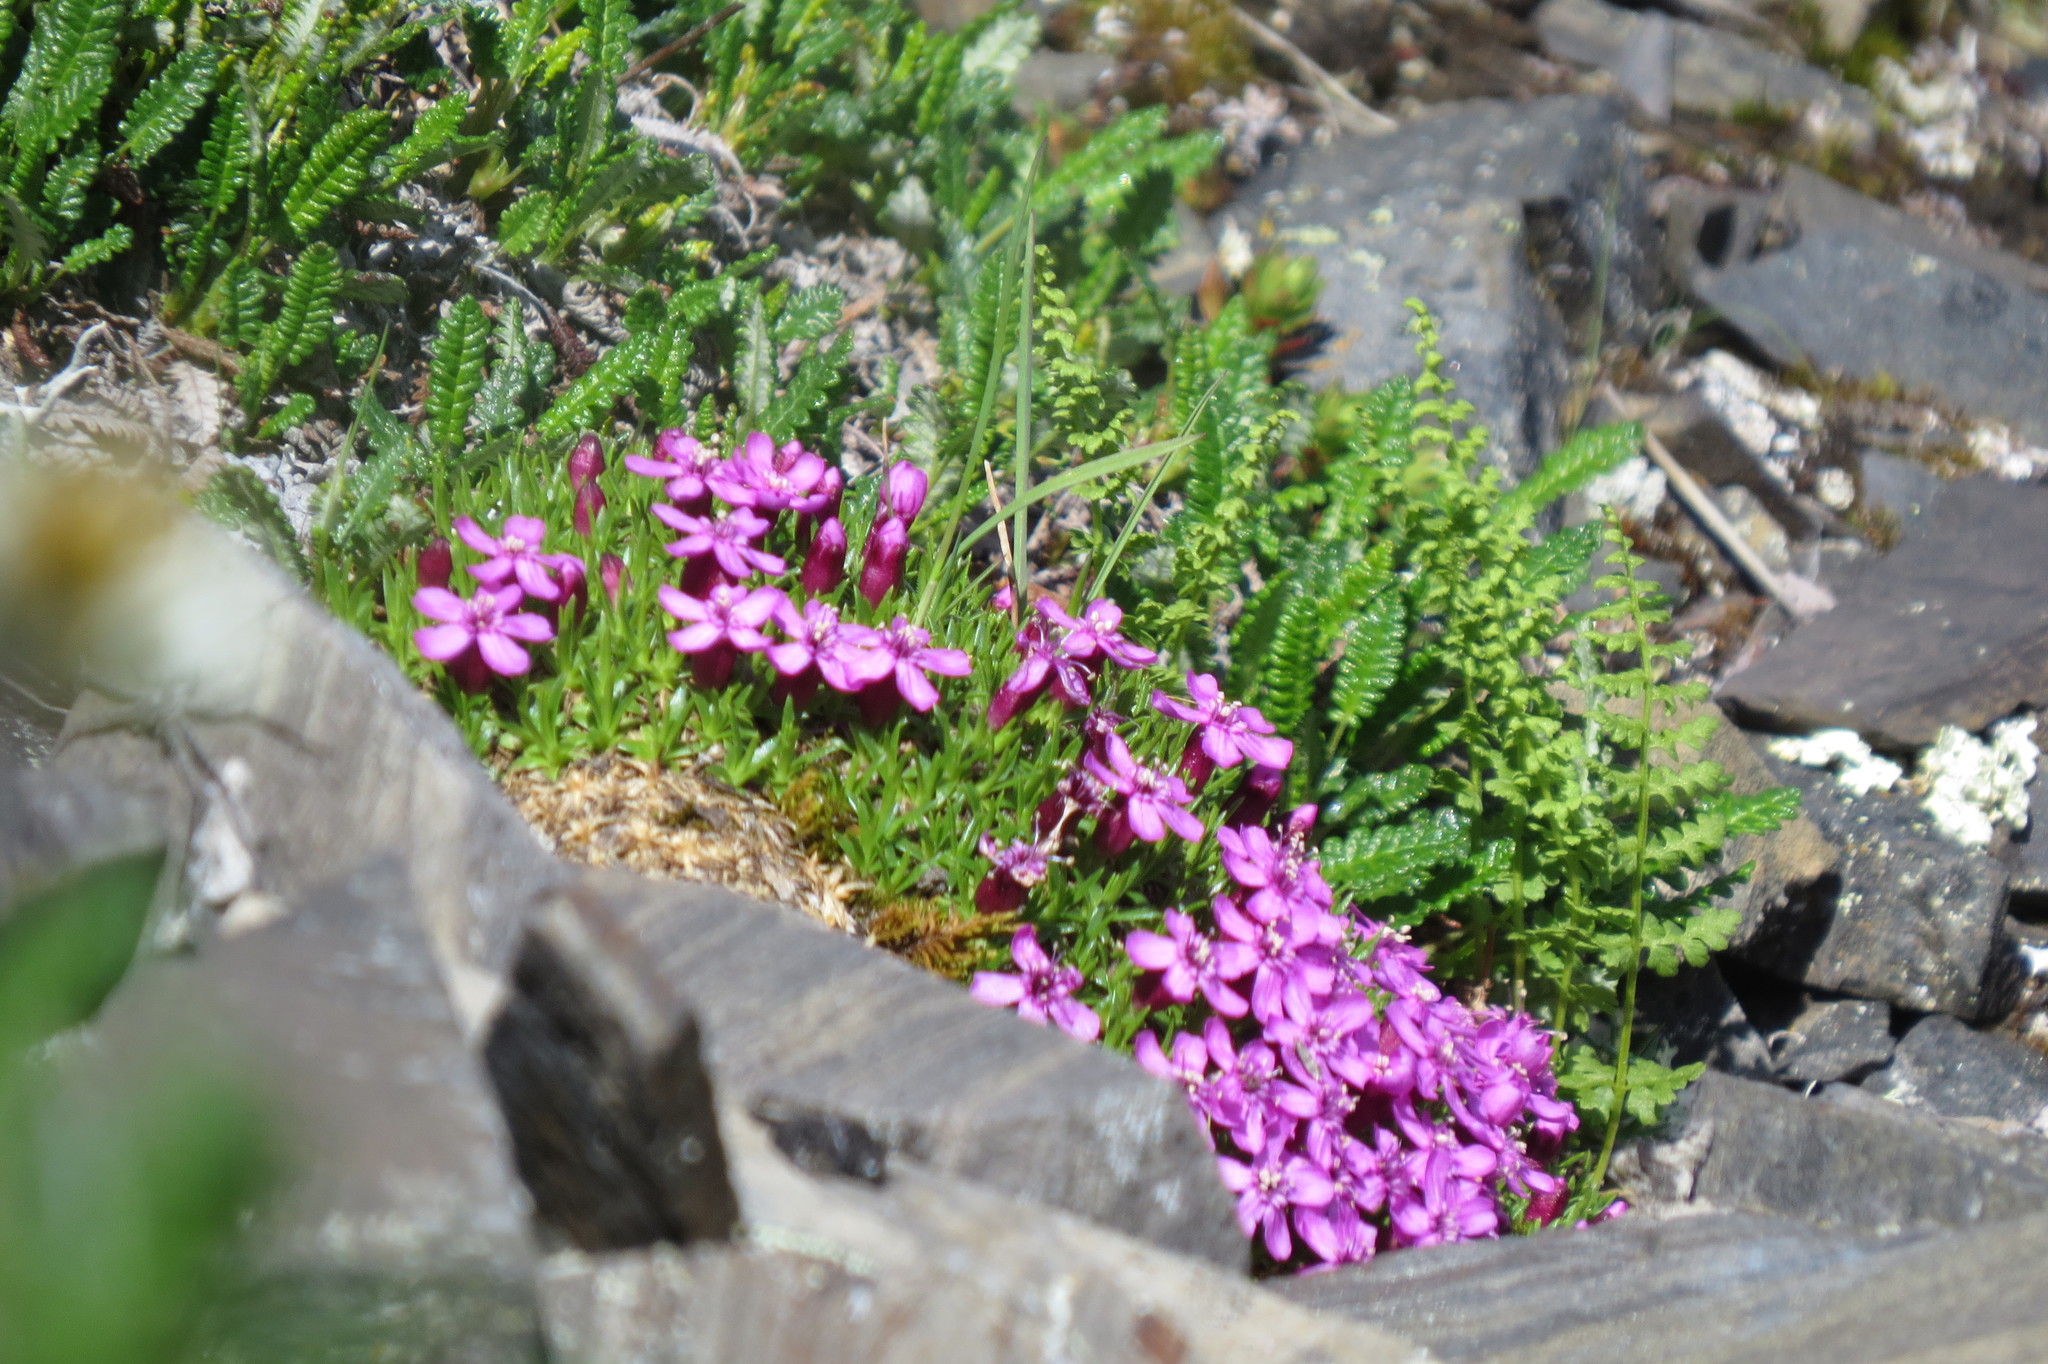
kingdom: Plantae
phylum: Tracheophyta
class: Magnoliopsida
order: Caryophyllales
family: Caryophyllaceae
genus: Silene
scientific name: Silene acaulis
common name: Moss campion
